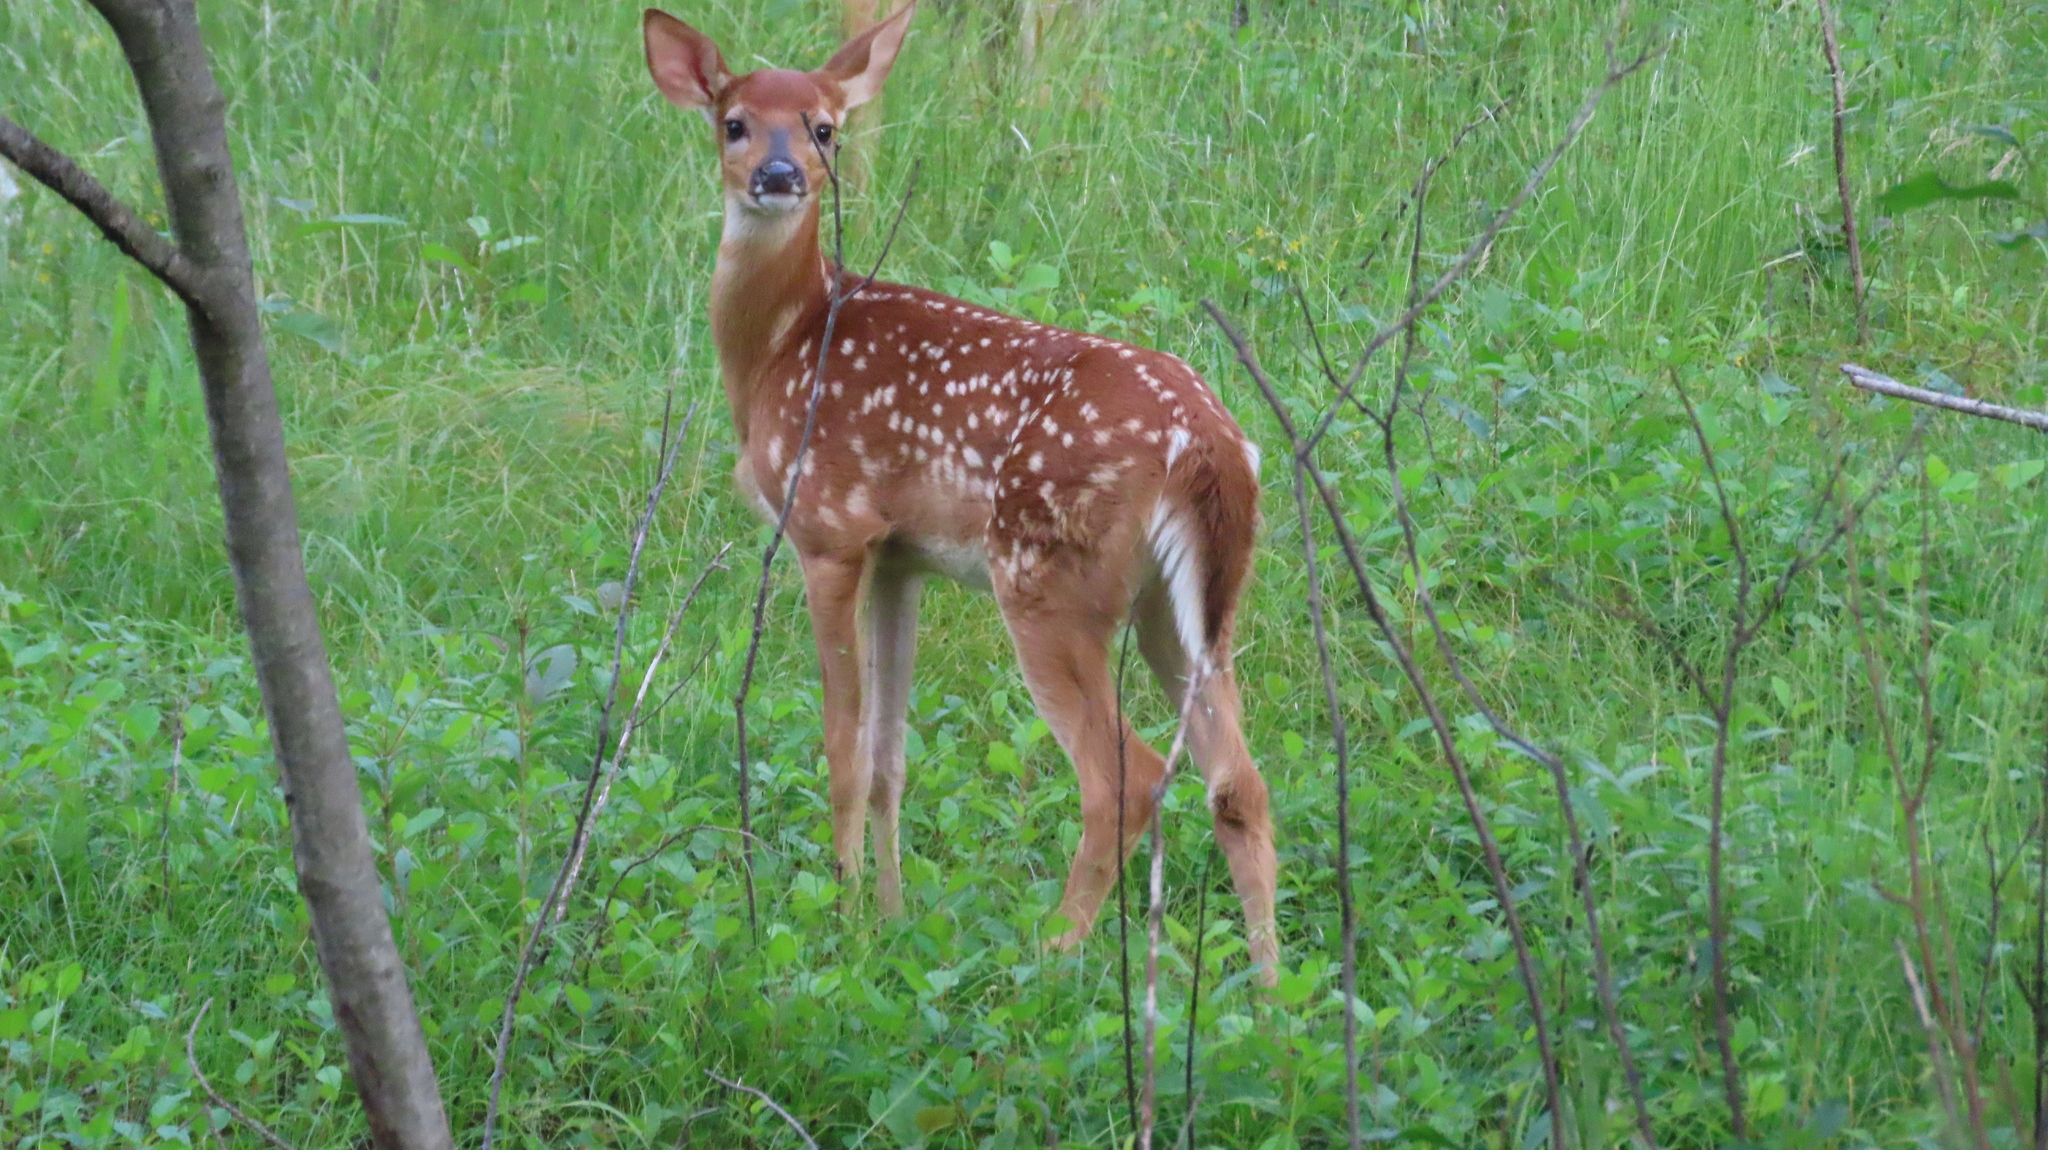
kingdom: Animalia
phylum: Chordata
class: Mammalia
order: Artiodactyla
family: Cervidae
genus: Odocoileus
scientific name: Odocoileus virginianus
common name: White-tailed deer
